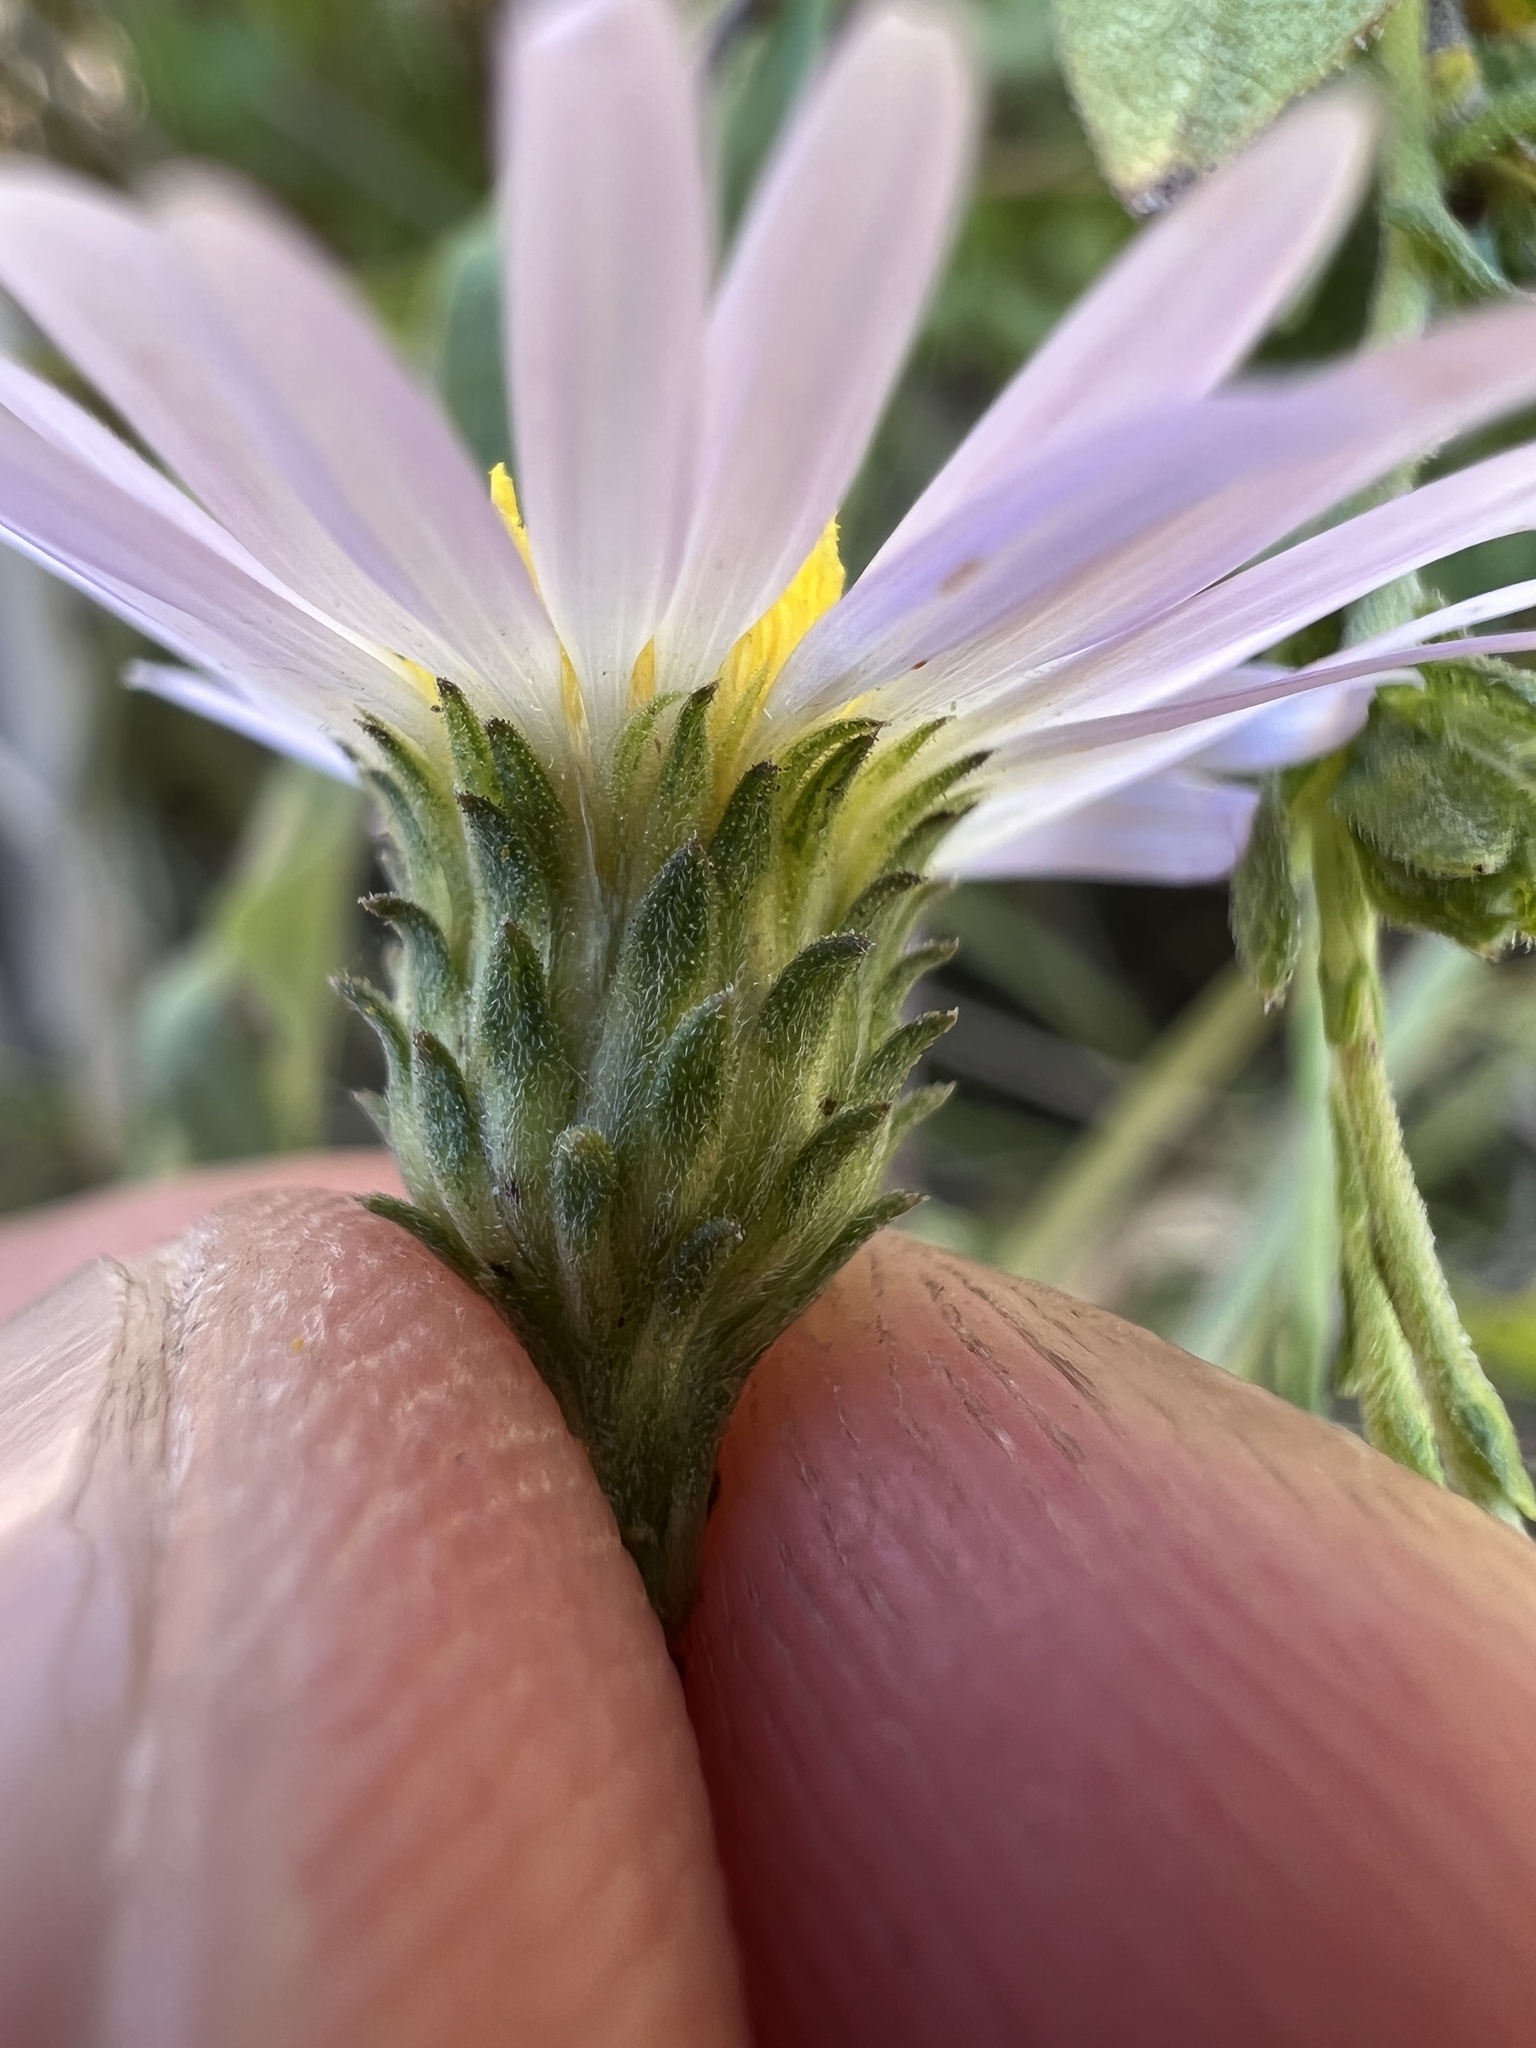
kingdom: Plantae
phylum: Tracheophyta
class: Magnoliopsida
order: Asterales
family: Asteraceae
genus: Symphyotrichum
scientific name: Symphyotrichum patens
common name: Late purple aster
